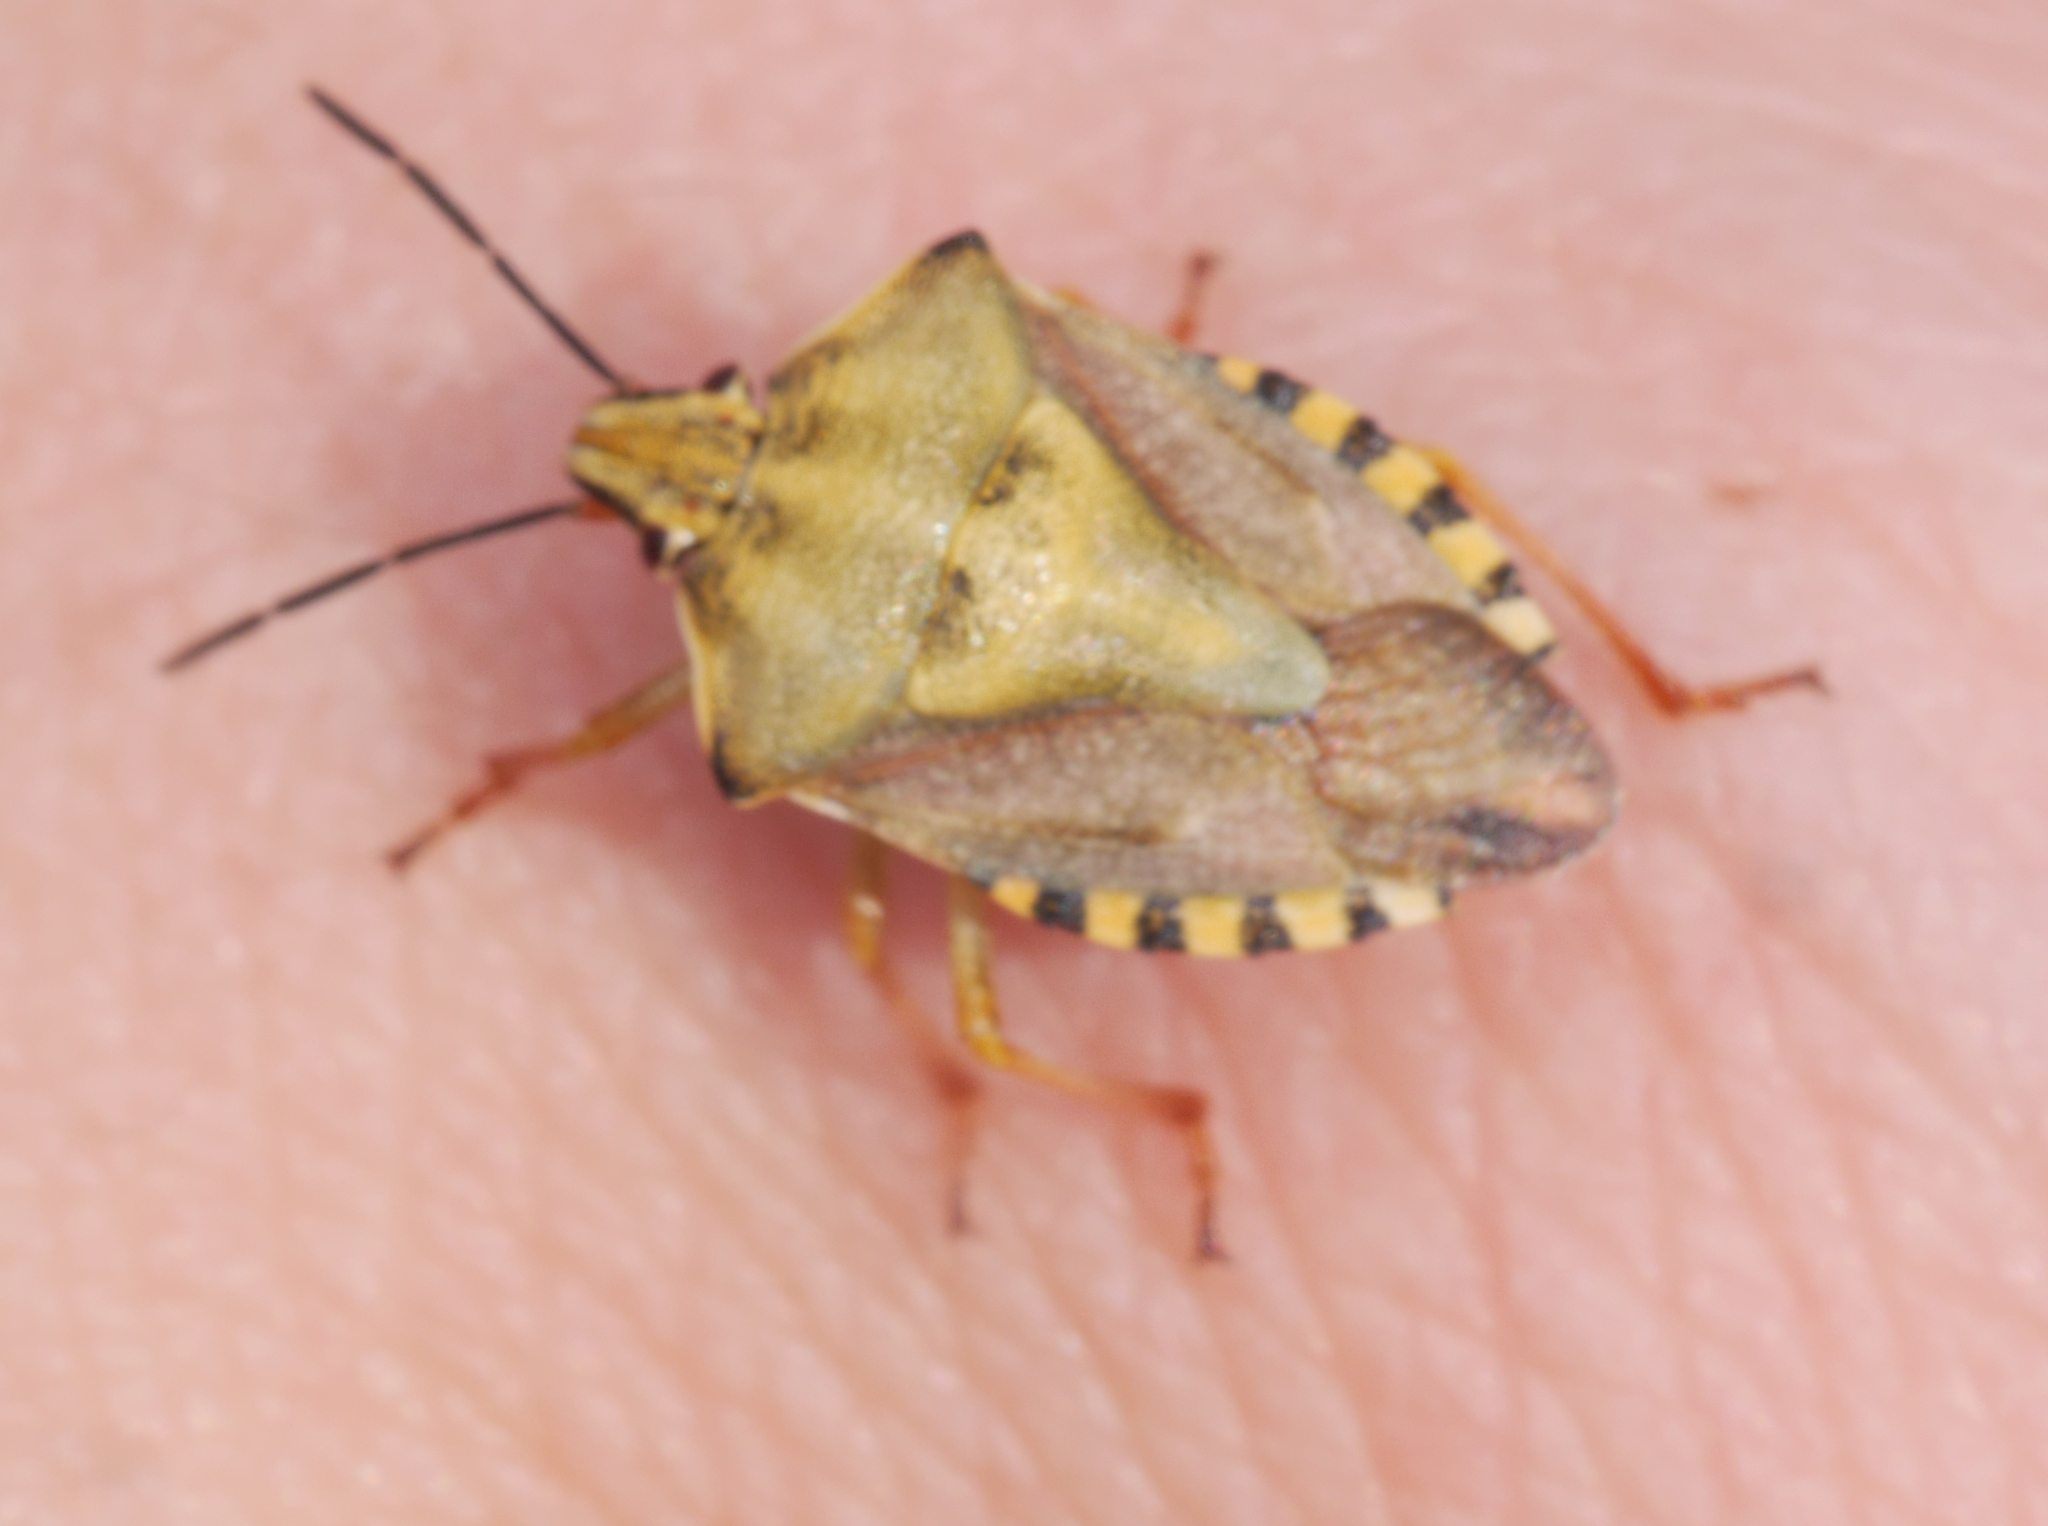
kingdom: Animalia
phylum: Arthropoda
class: Insecta
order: Hemiptera
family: Pentatomidae
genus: Carpocoris
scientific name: Carpocoris purpureipennis
